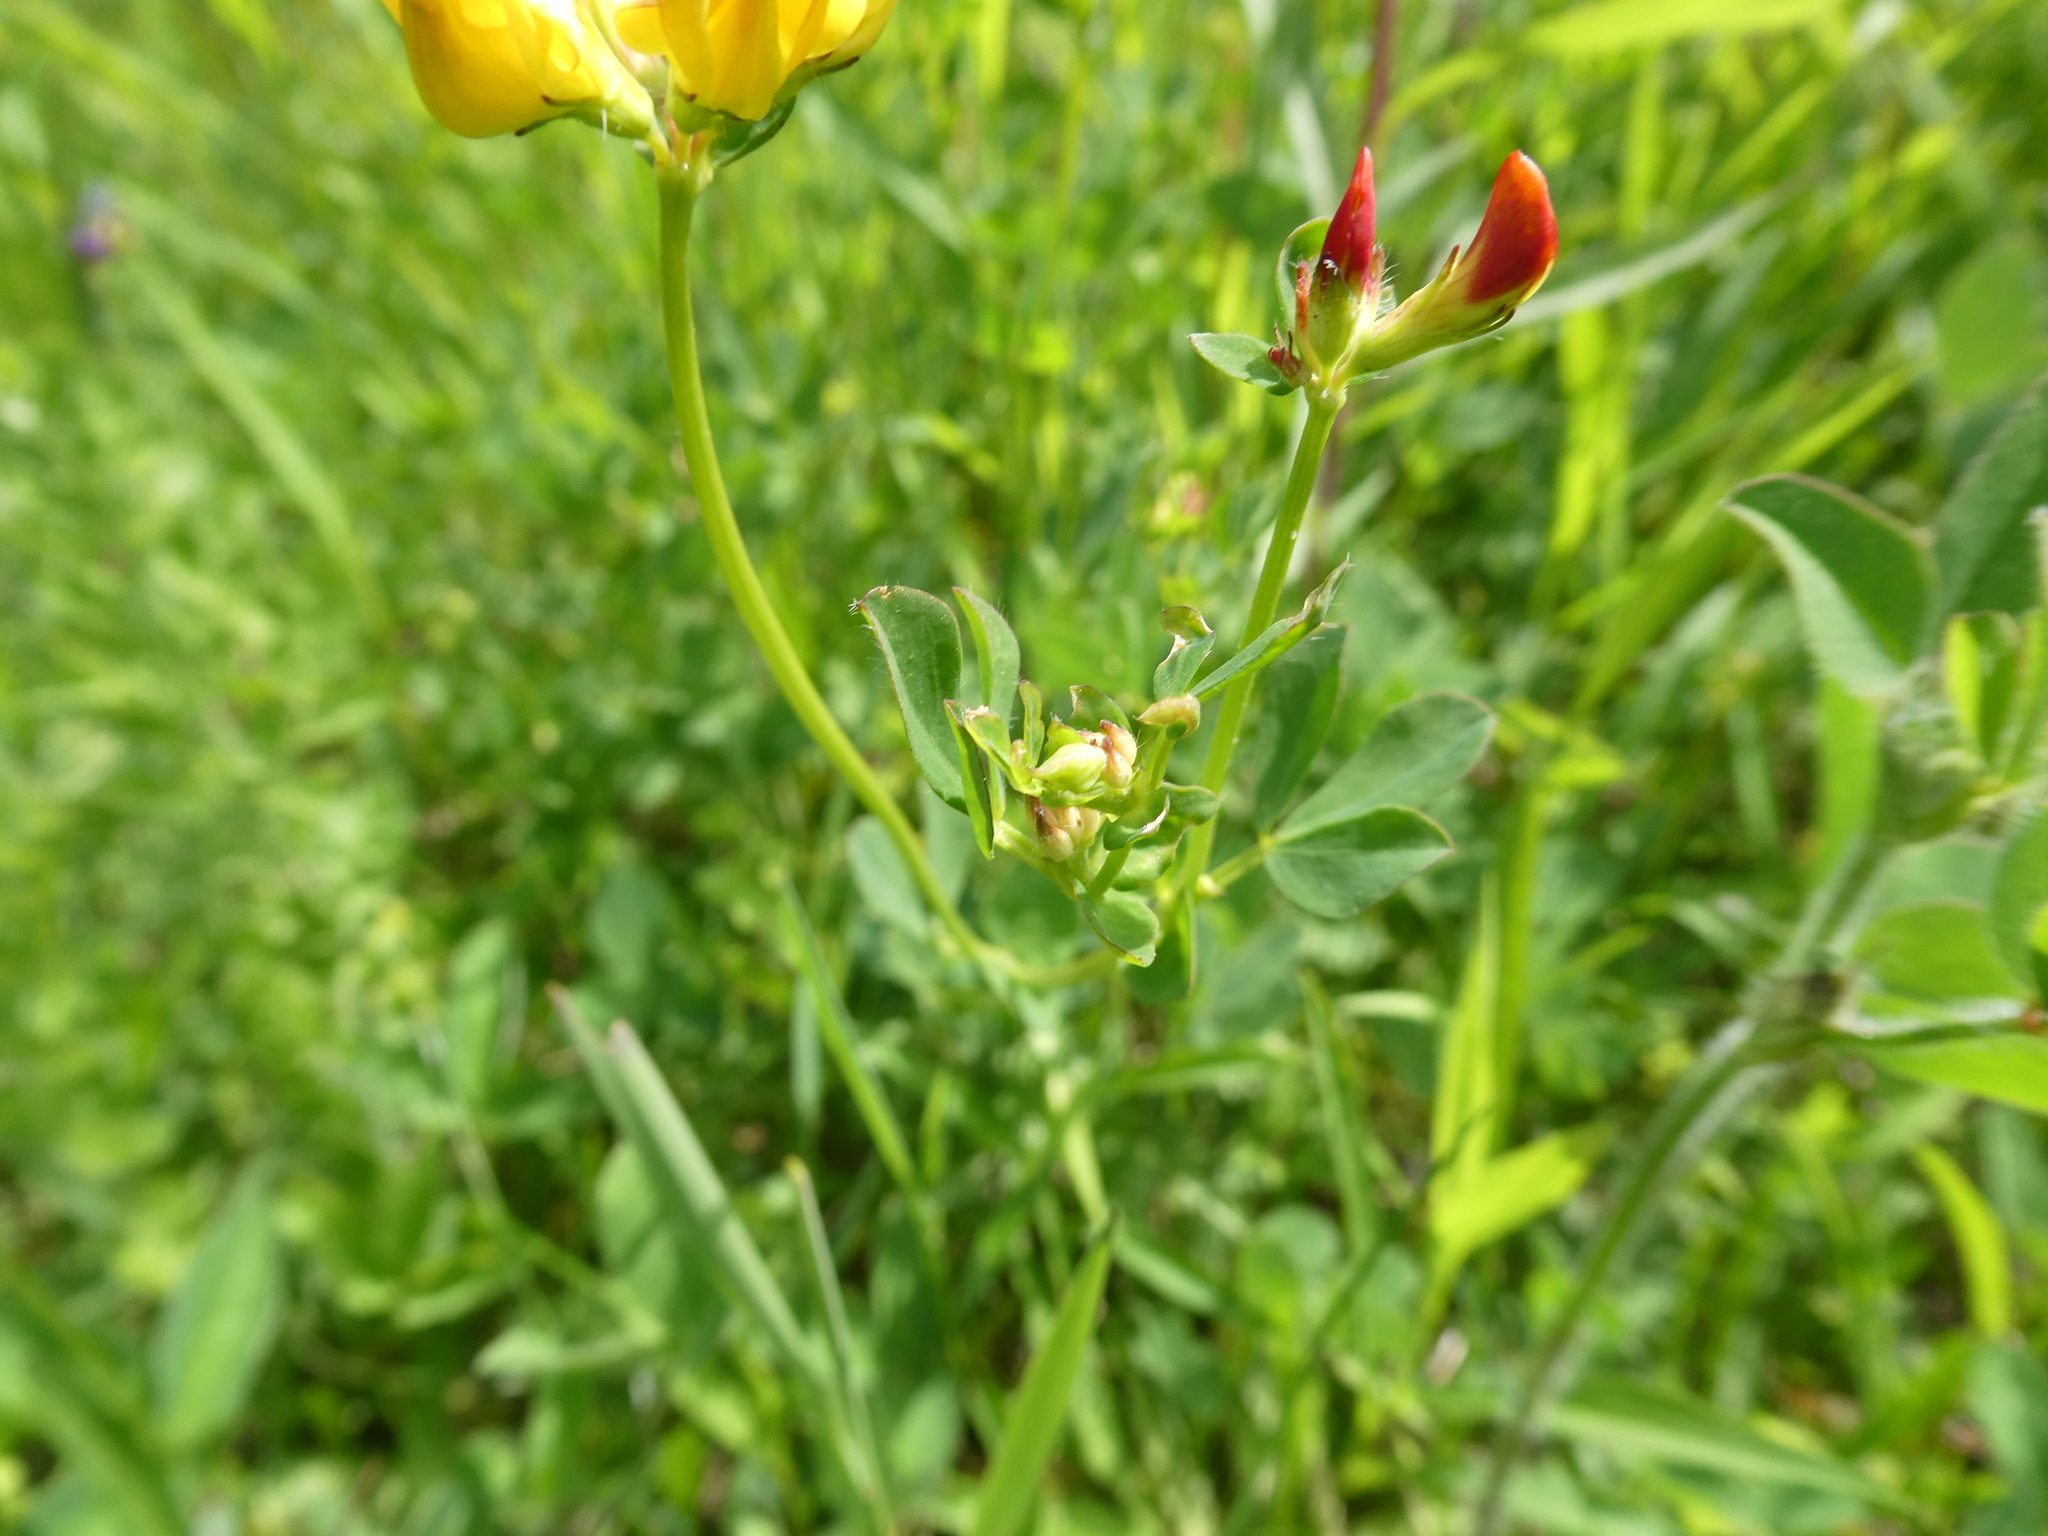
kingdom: Plantae
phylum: Tracheophyta
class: Magnoliopsida
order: Fabales
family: Fabaceae
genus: Lotus
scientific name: Lotus corniculatus
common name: Common bird's-foot-trefoil
